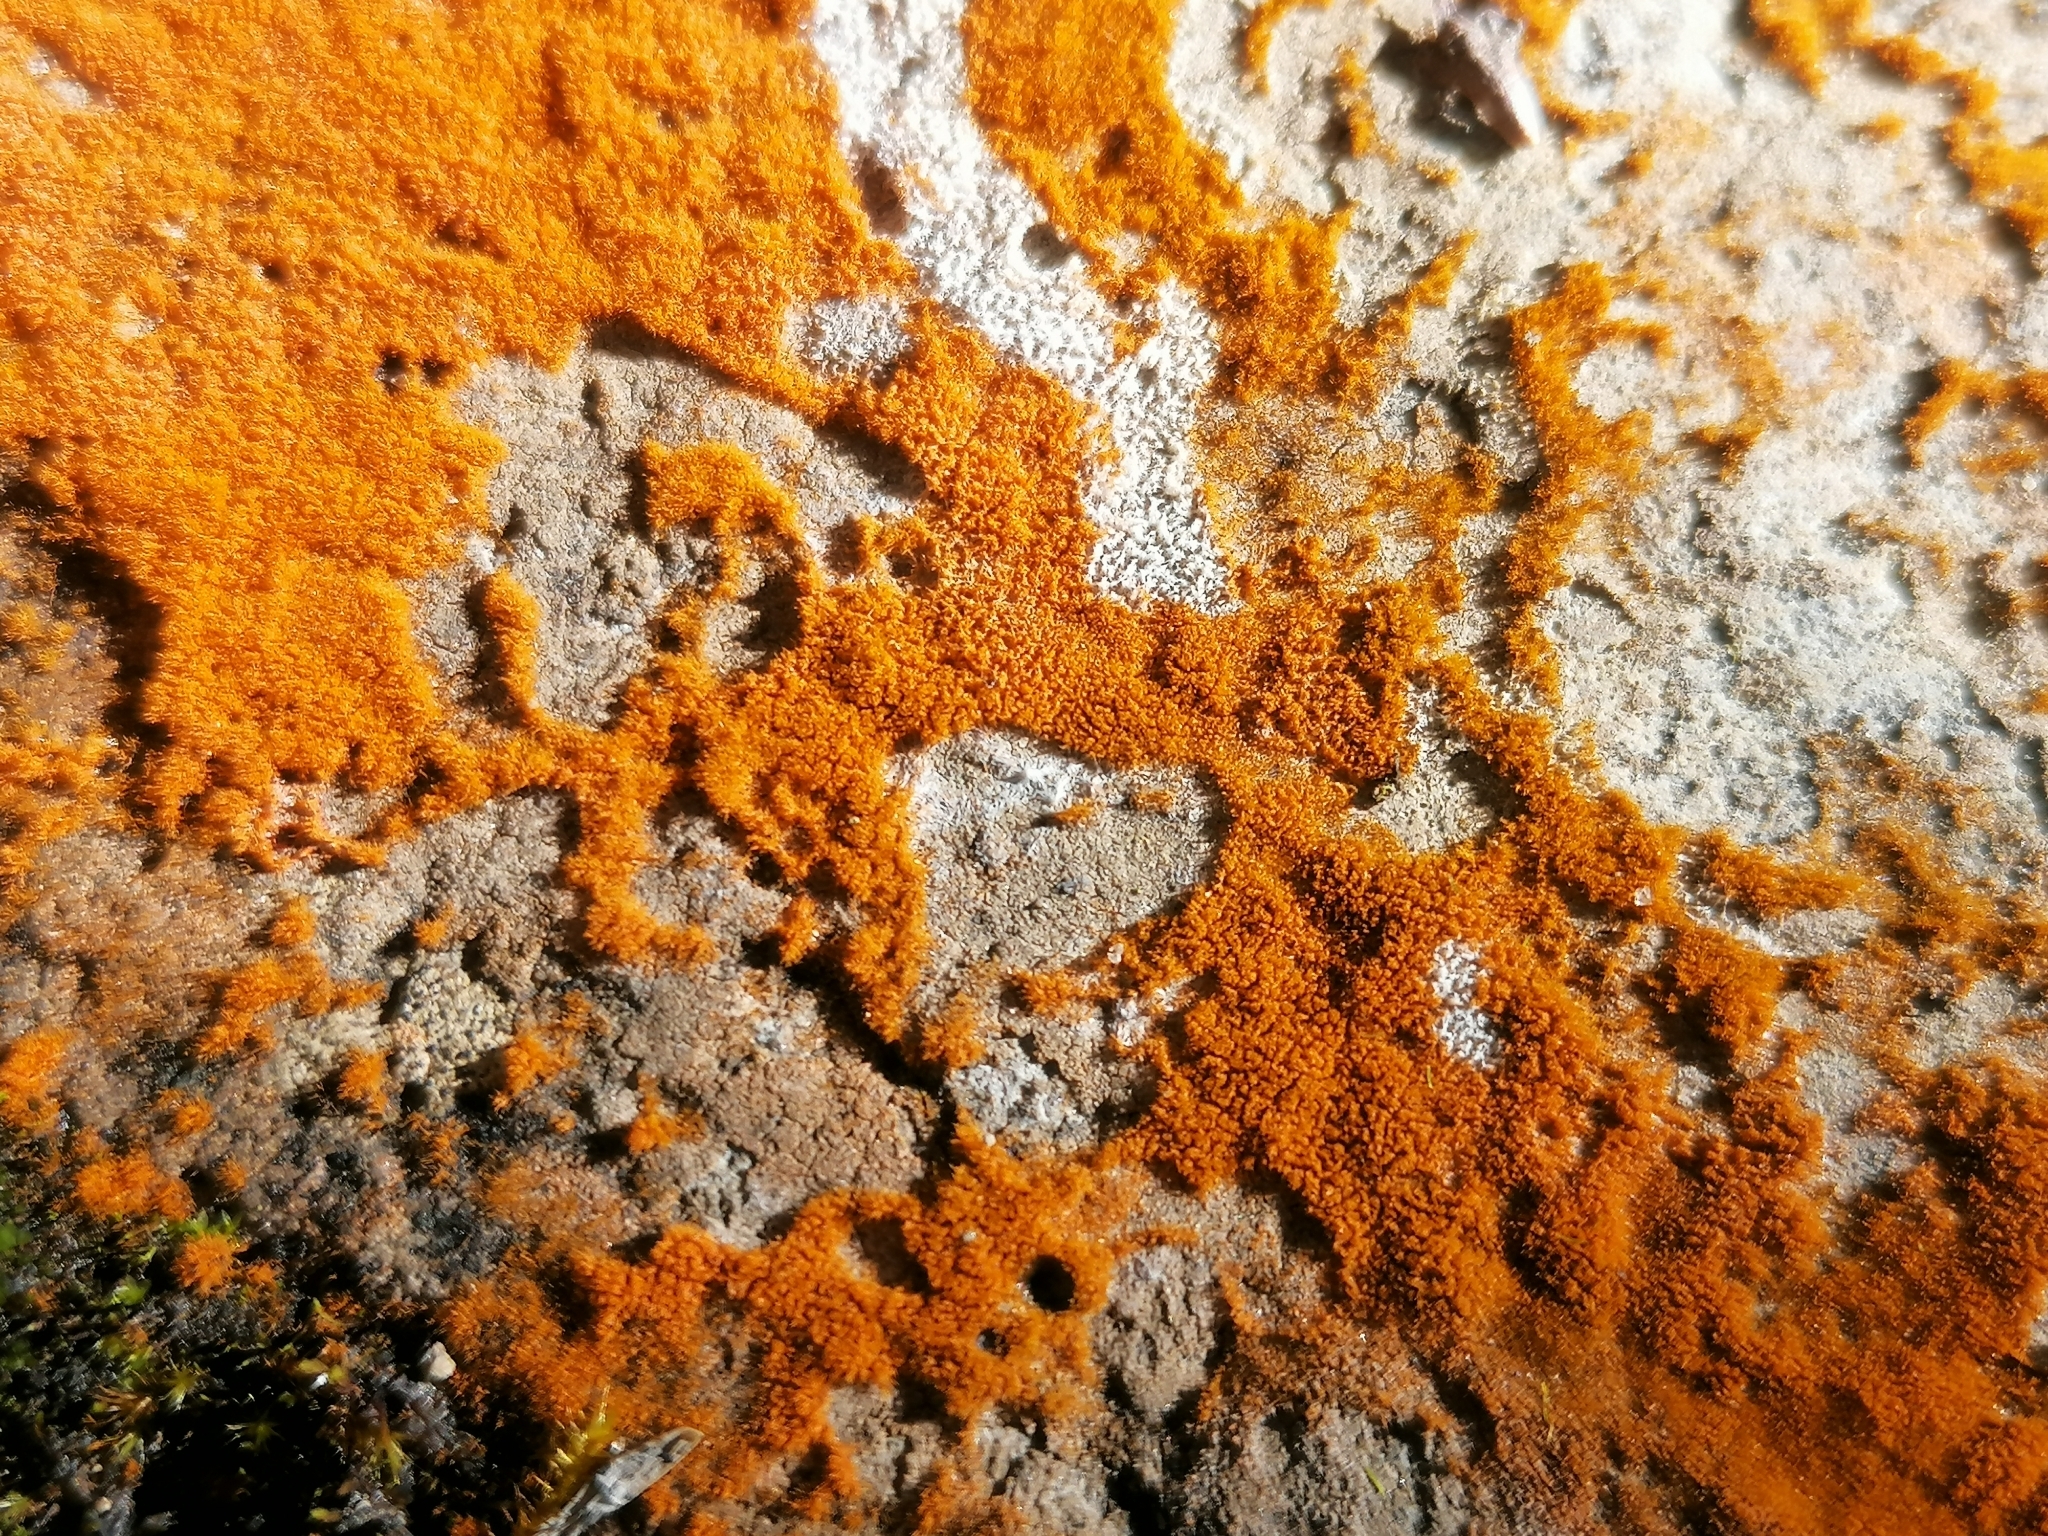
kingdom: Plantae
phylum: Chlorophyta
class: Ulvophyceae
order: Trentepohliales
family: Trentepohliaceae
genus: Trentepohlia
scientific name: Trentepohlia aurea
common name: Orange rock hair
